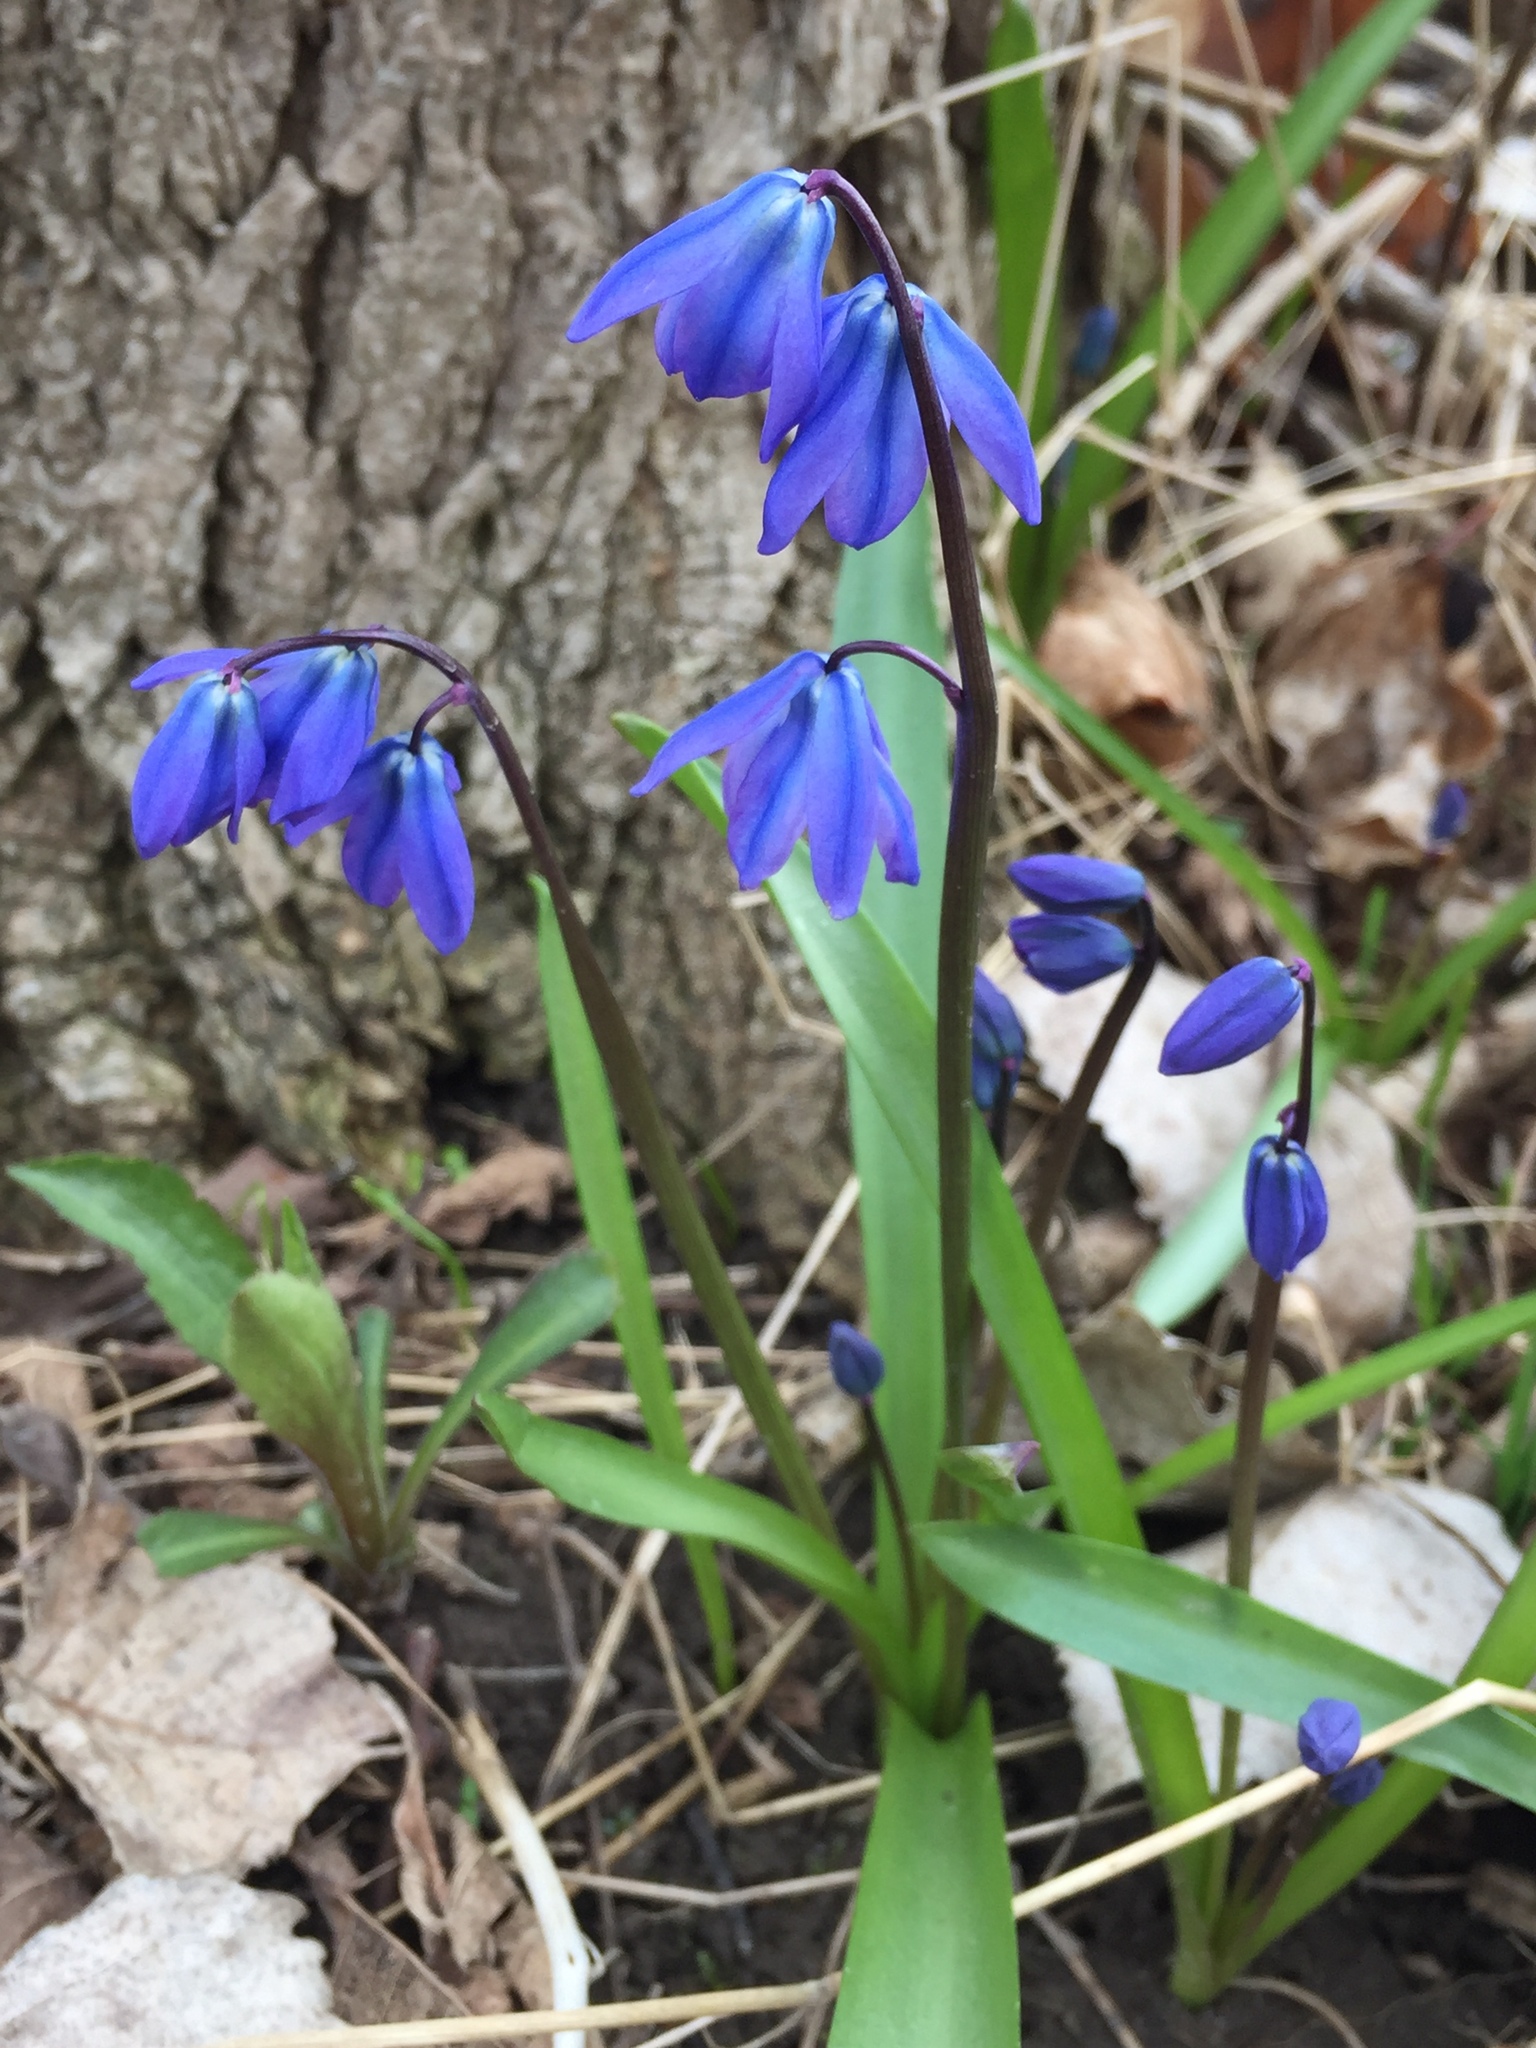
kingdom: Plantae
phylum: Tracheophyta
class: Liliopsida
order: Asparagales
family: Asparagaceae
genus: Scilla
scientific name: Scilla siberica
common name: Siberian squill
